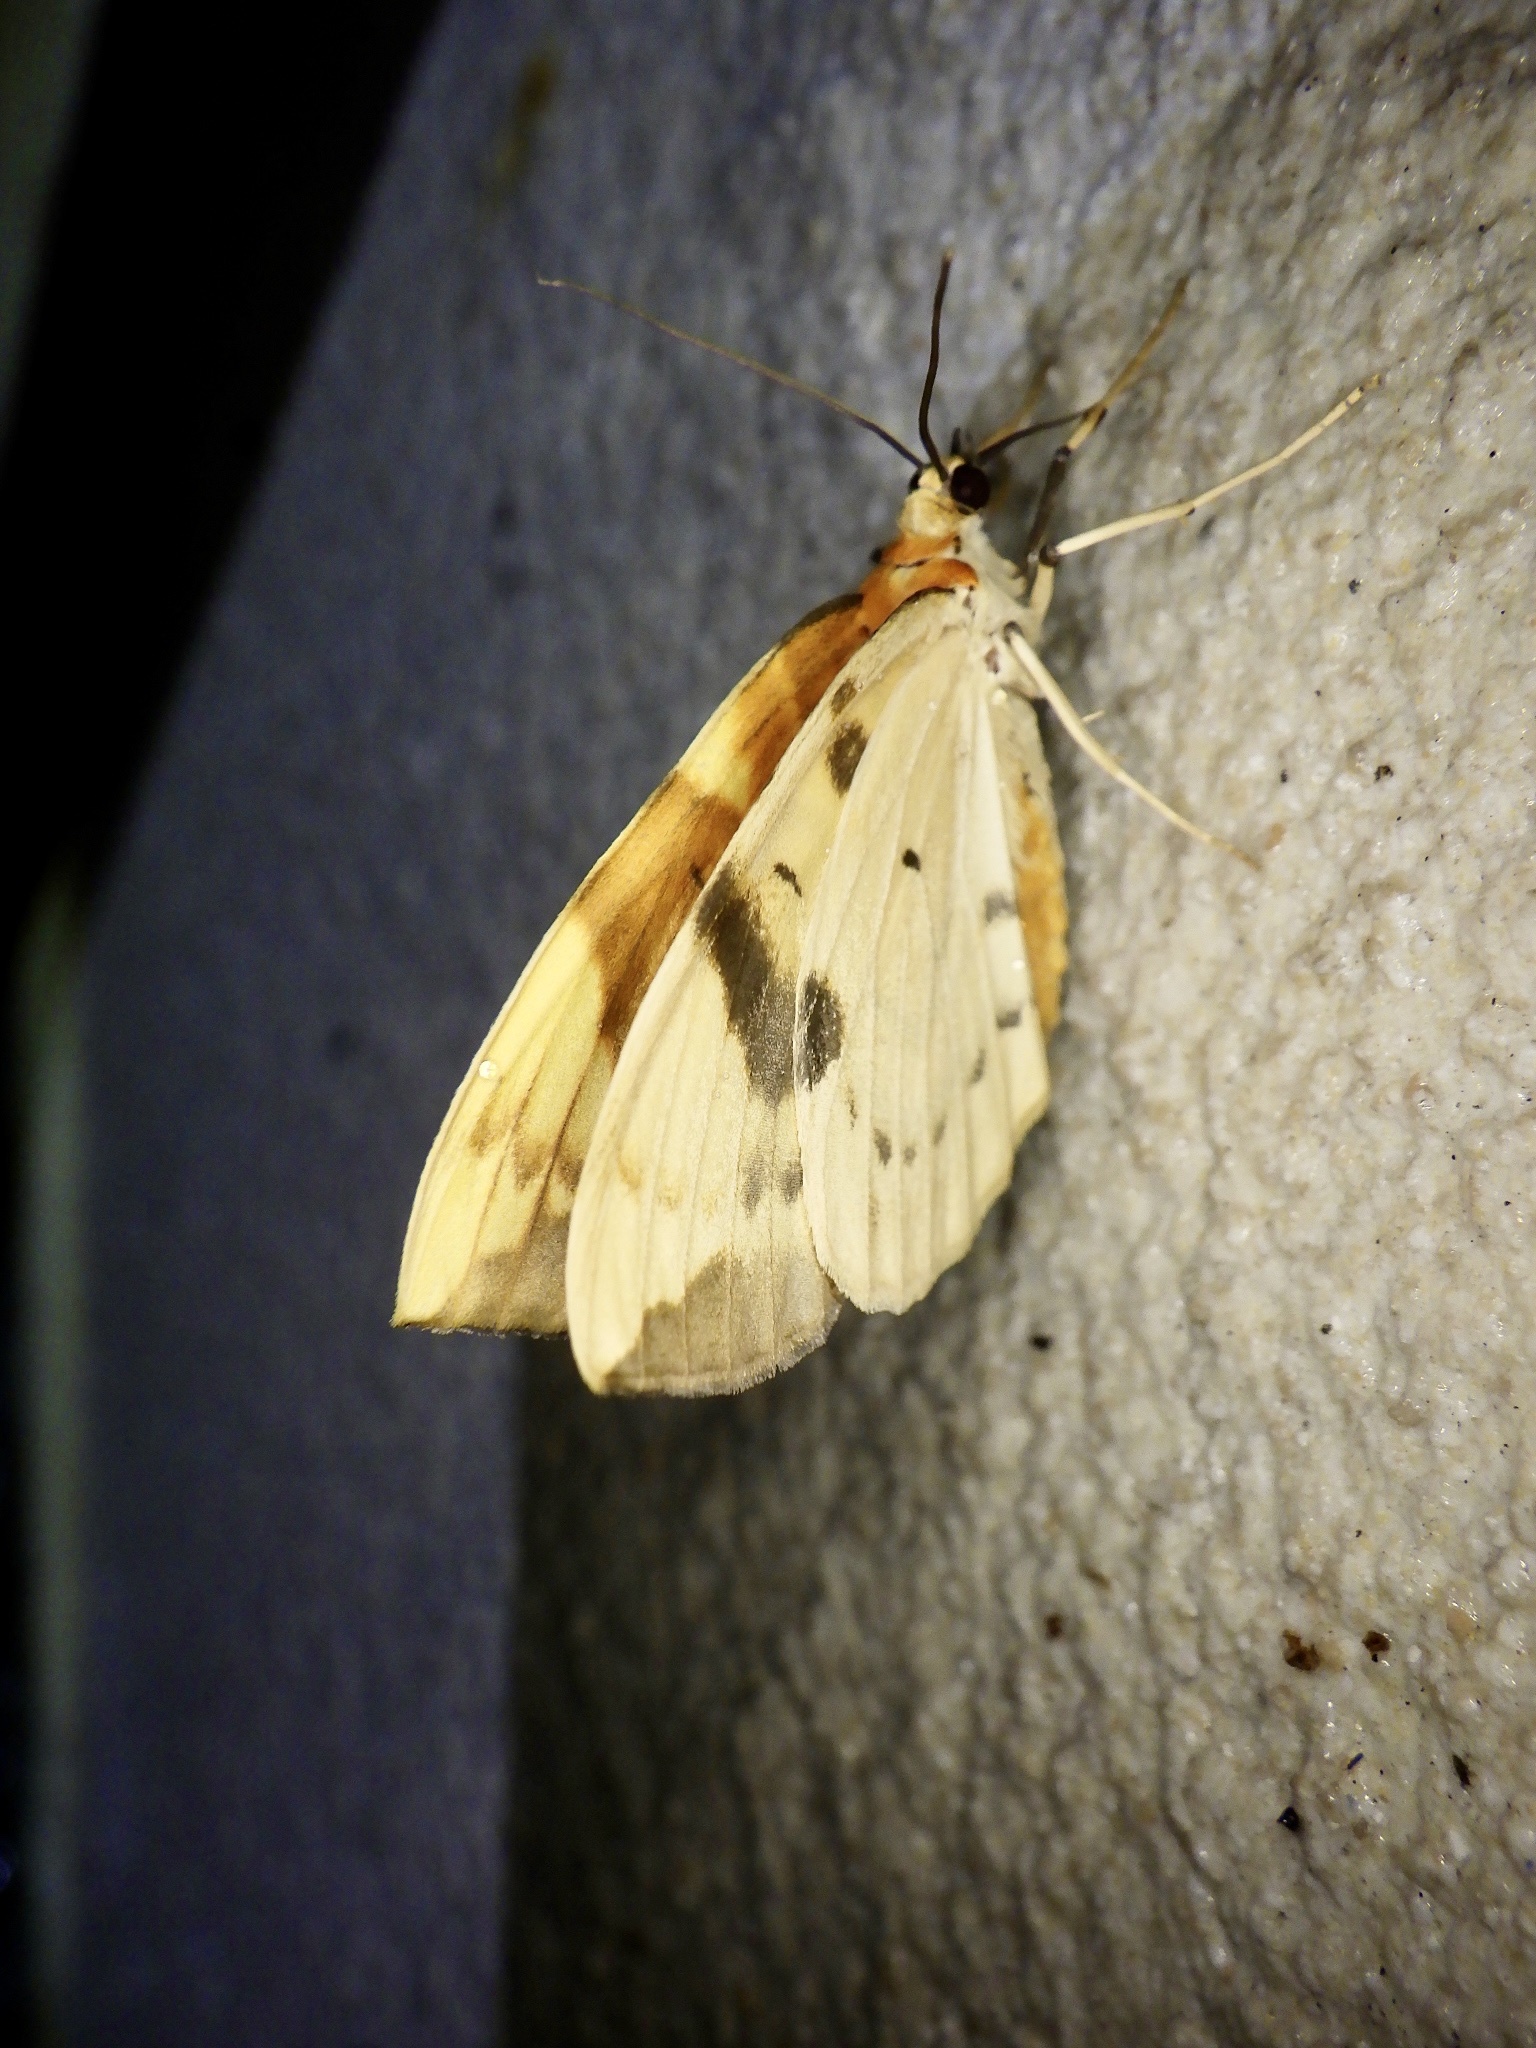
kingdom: Animalia
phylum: Arthropoda
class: Insecta
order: Lepidoptera
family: Geometridae
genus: Gandaritis
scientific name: Gandaritis fixseni
